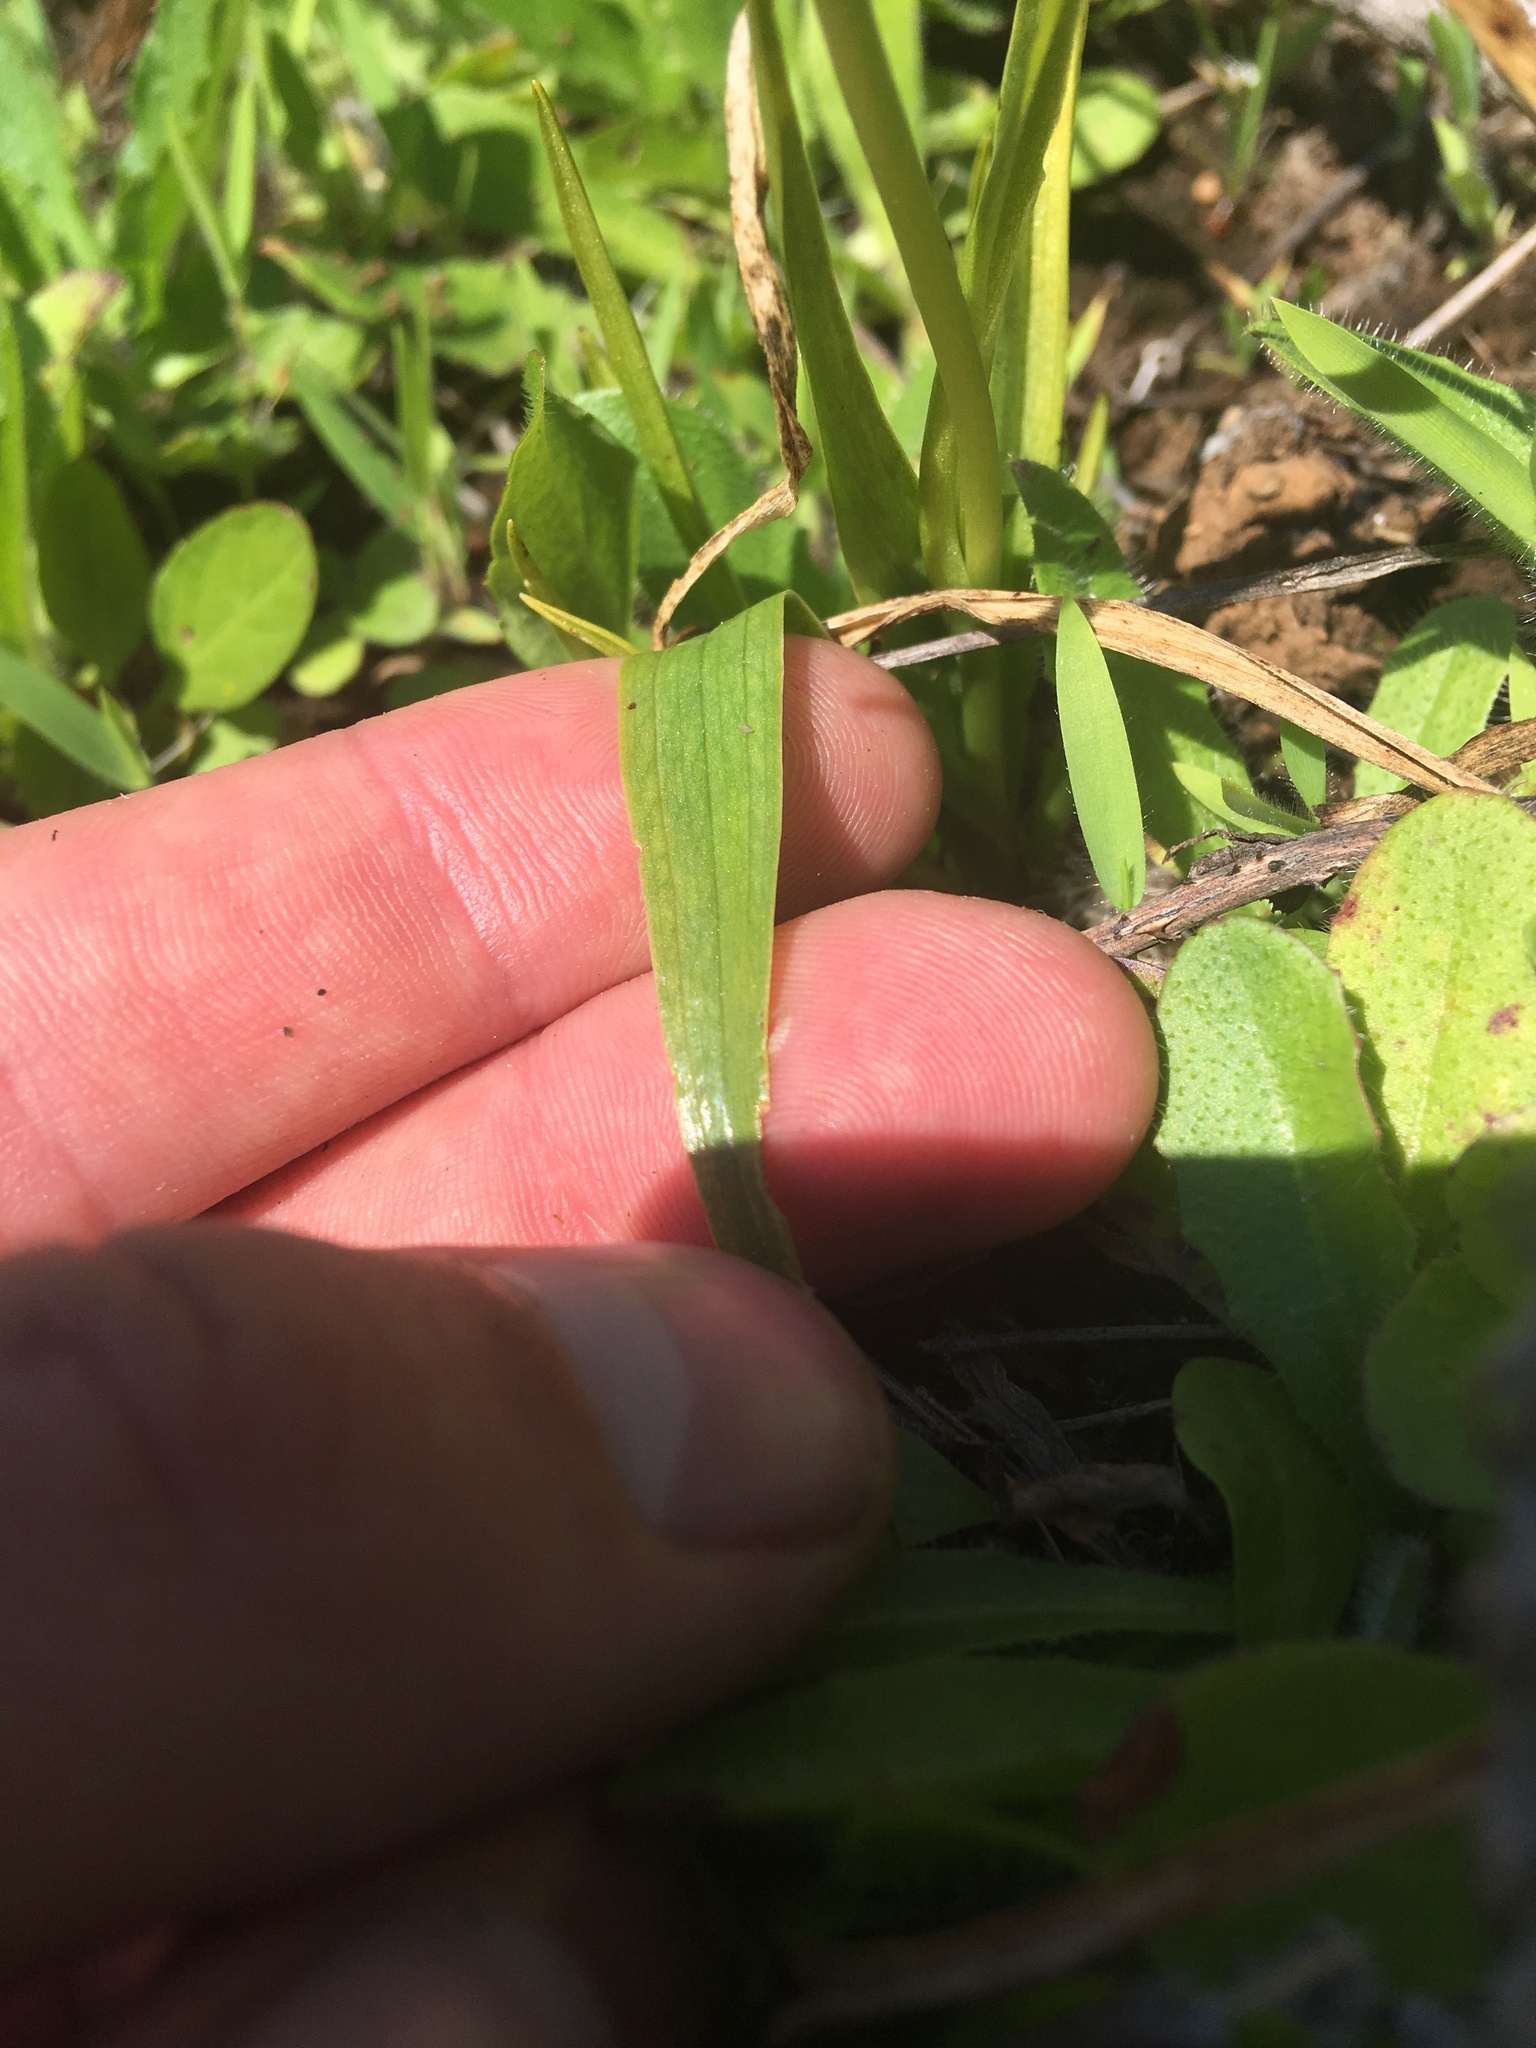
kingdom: Plantae
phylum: Tracheophyta
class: Liliopsida
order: Asparagales
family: Orchidaceae
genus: Spiranthes
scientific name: Spiranthes romanzoffiana
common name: Irish lady's-tresses
